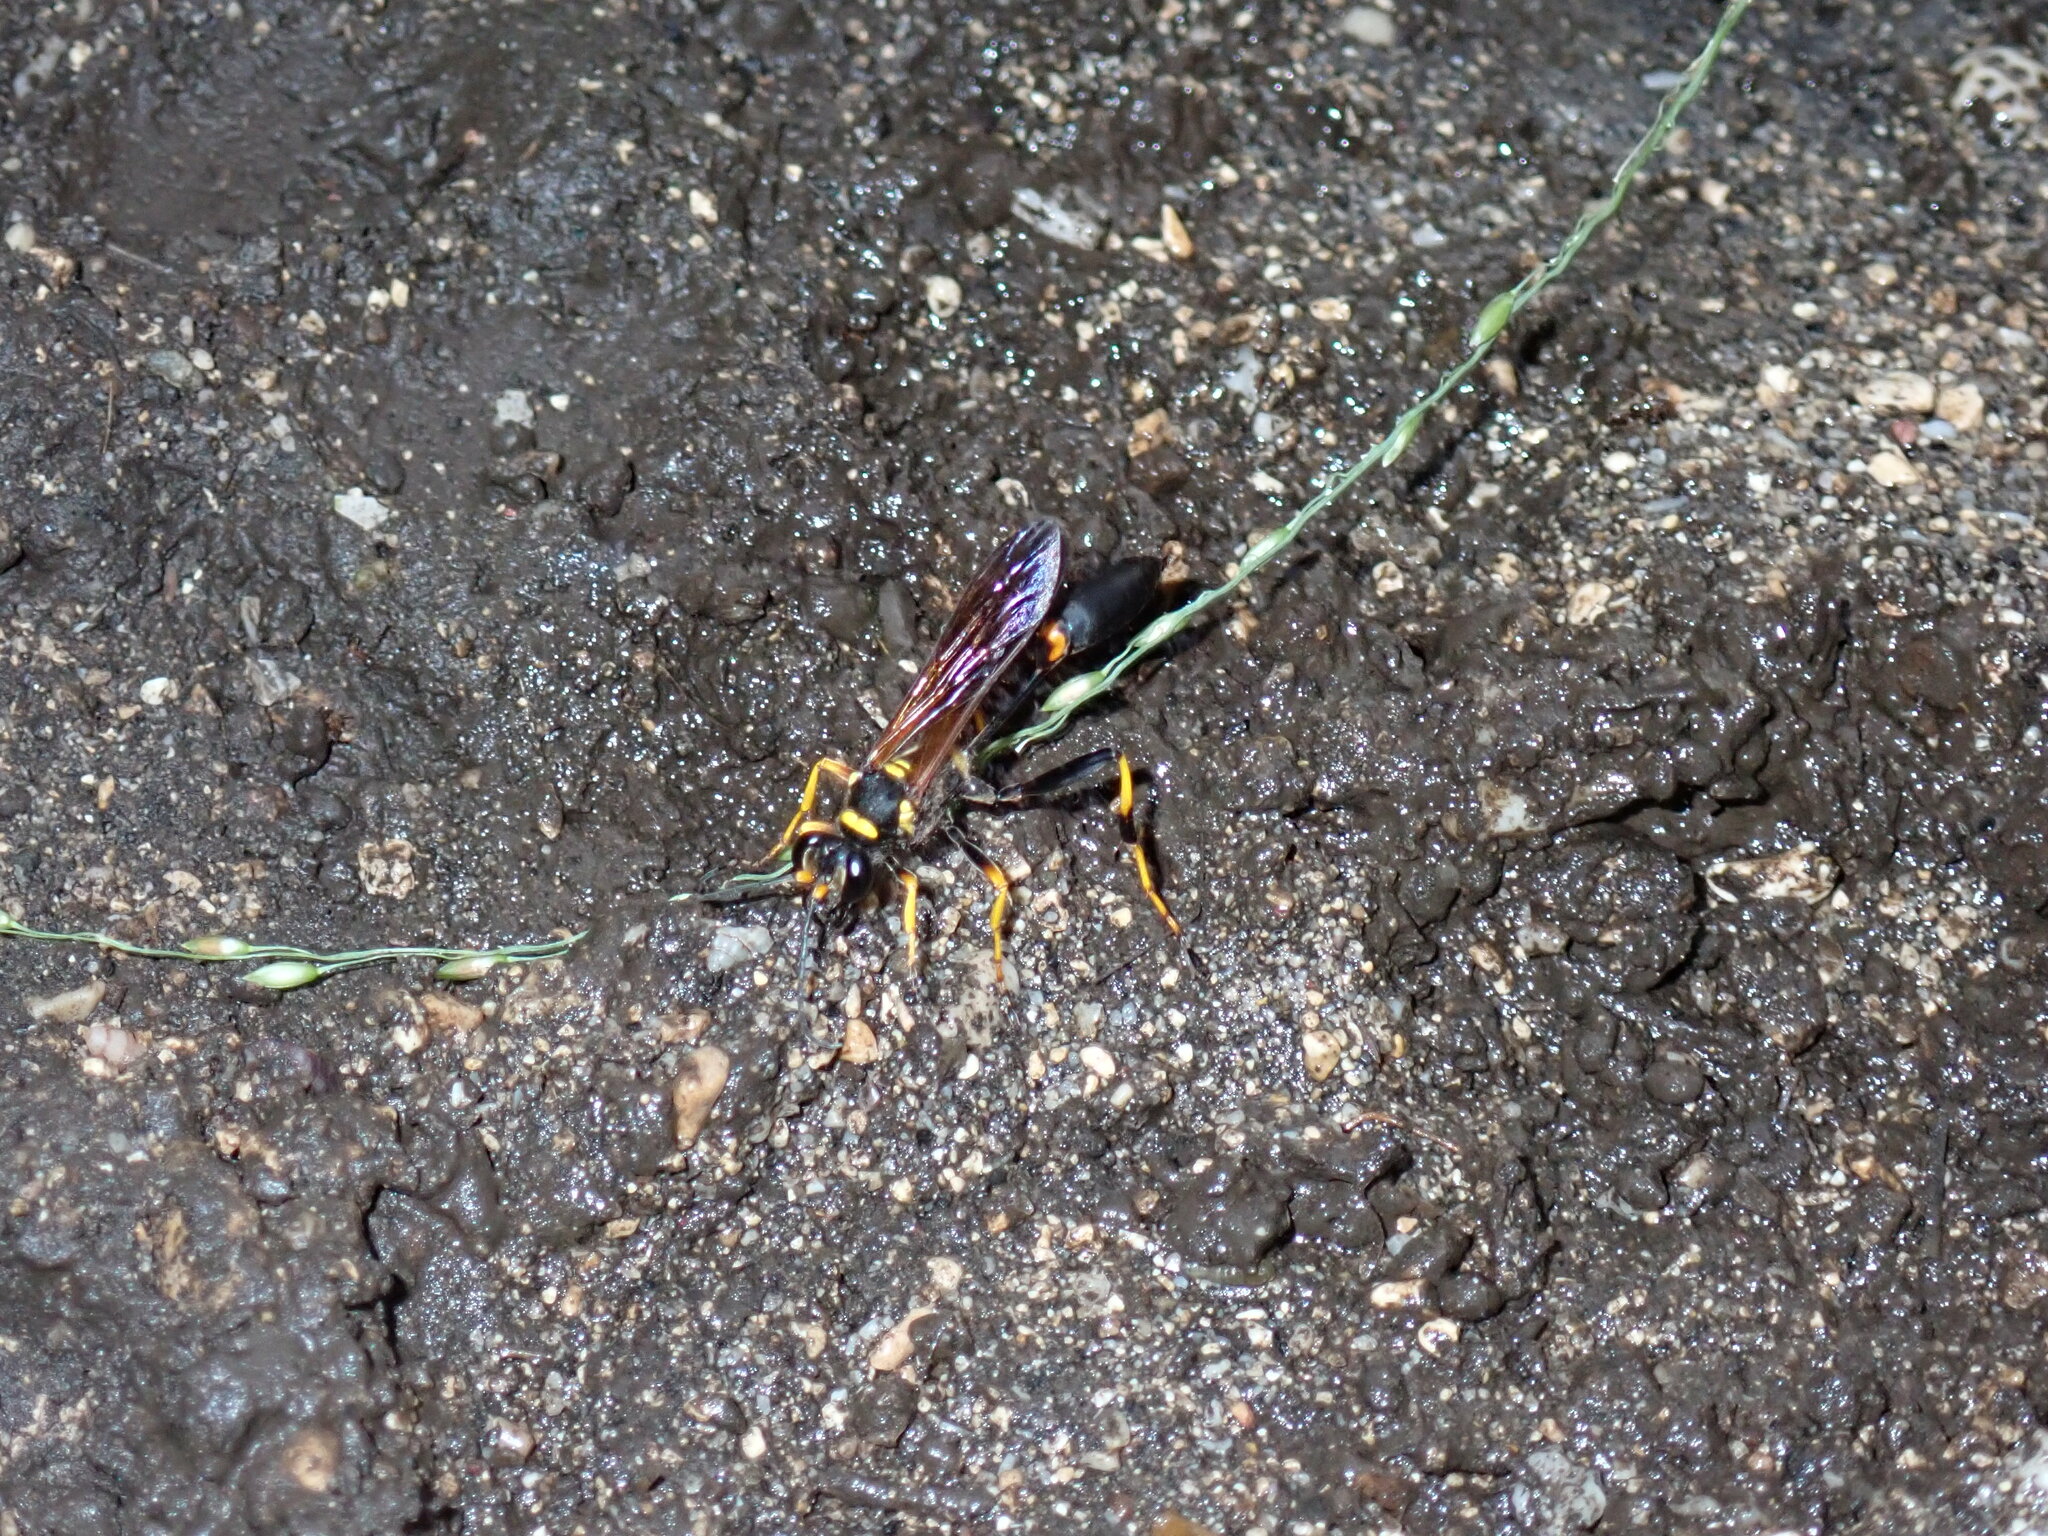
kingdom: Animalia
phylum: Arthropoda
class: Insecta
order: Hymenoptera
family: Sphecidae
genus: Sceliphron
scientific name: Sceliphron caementarium
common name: Mud dauber
